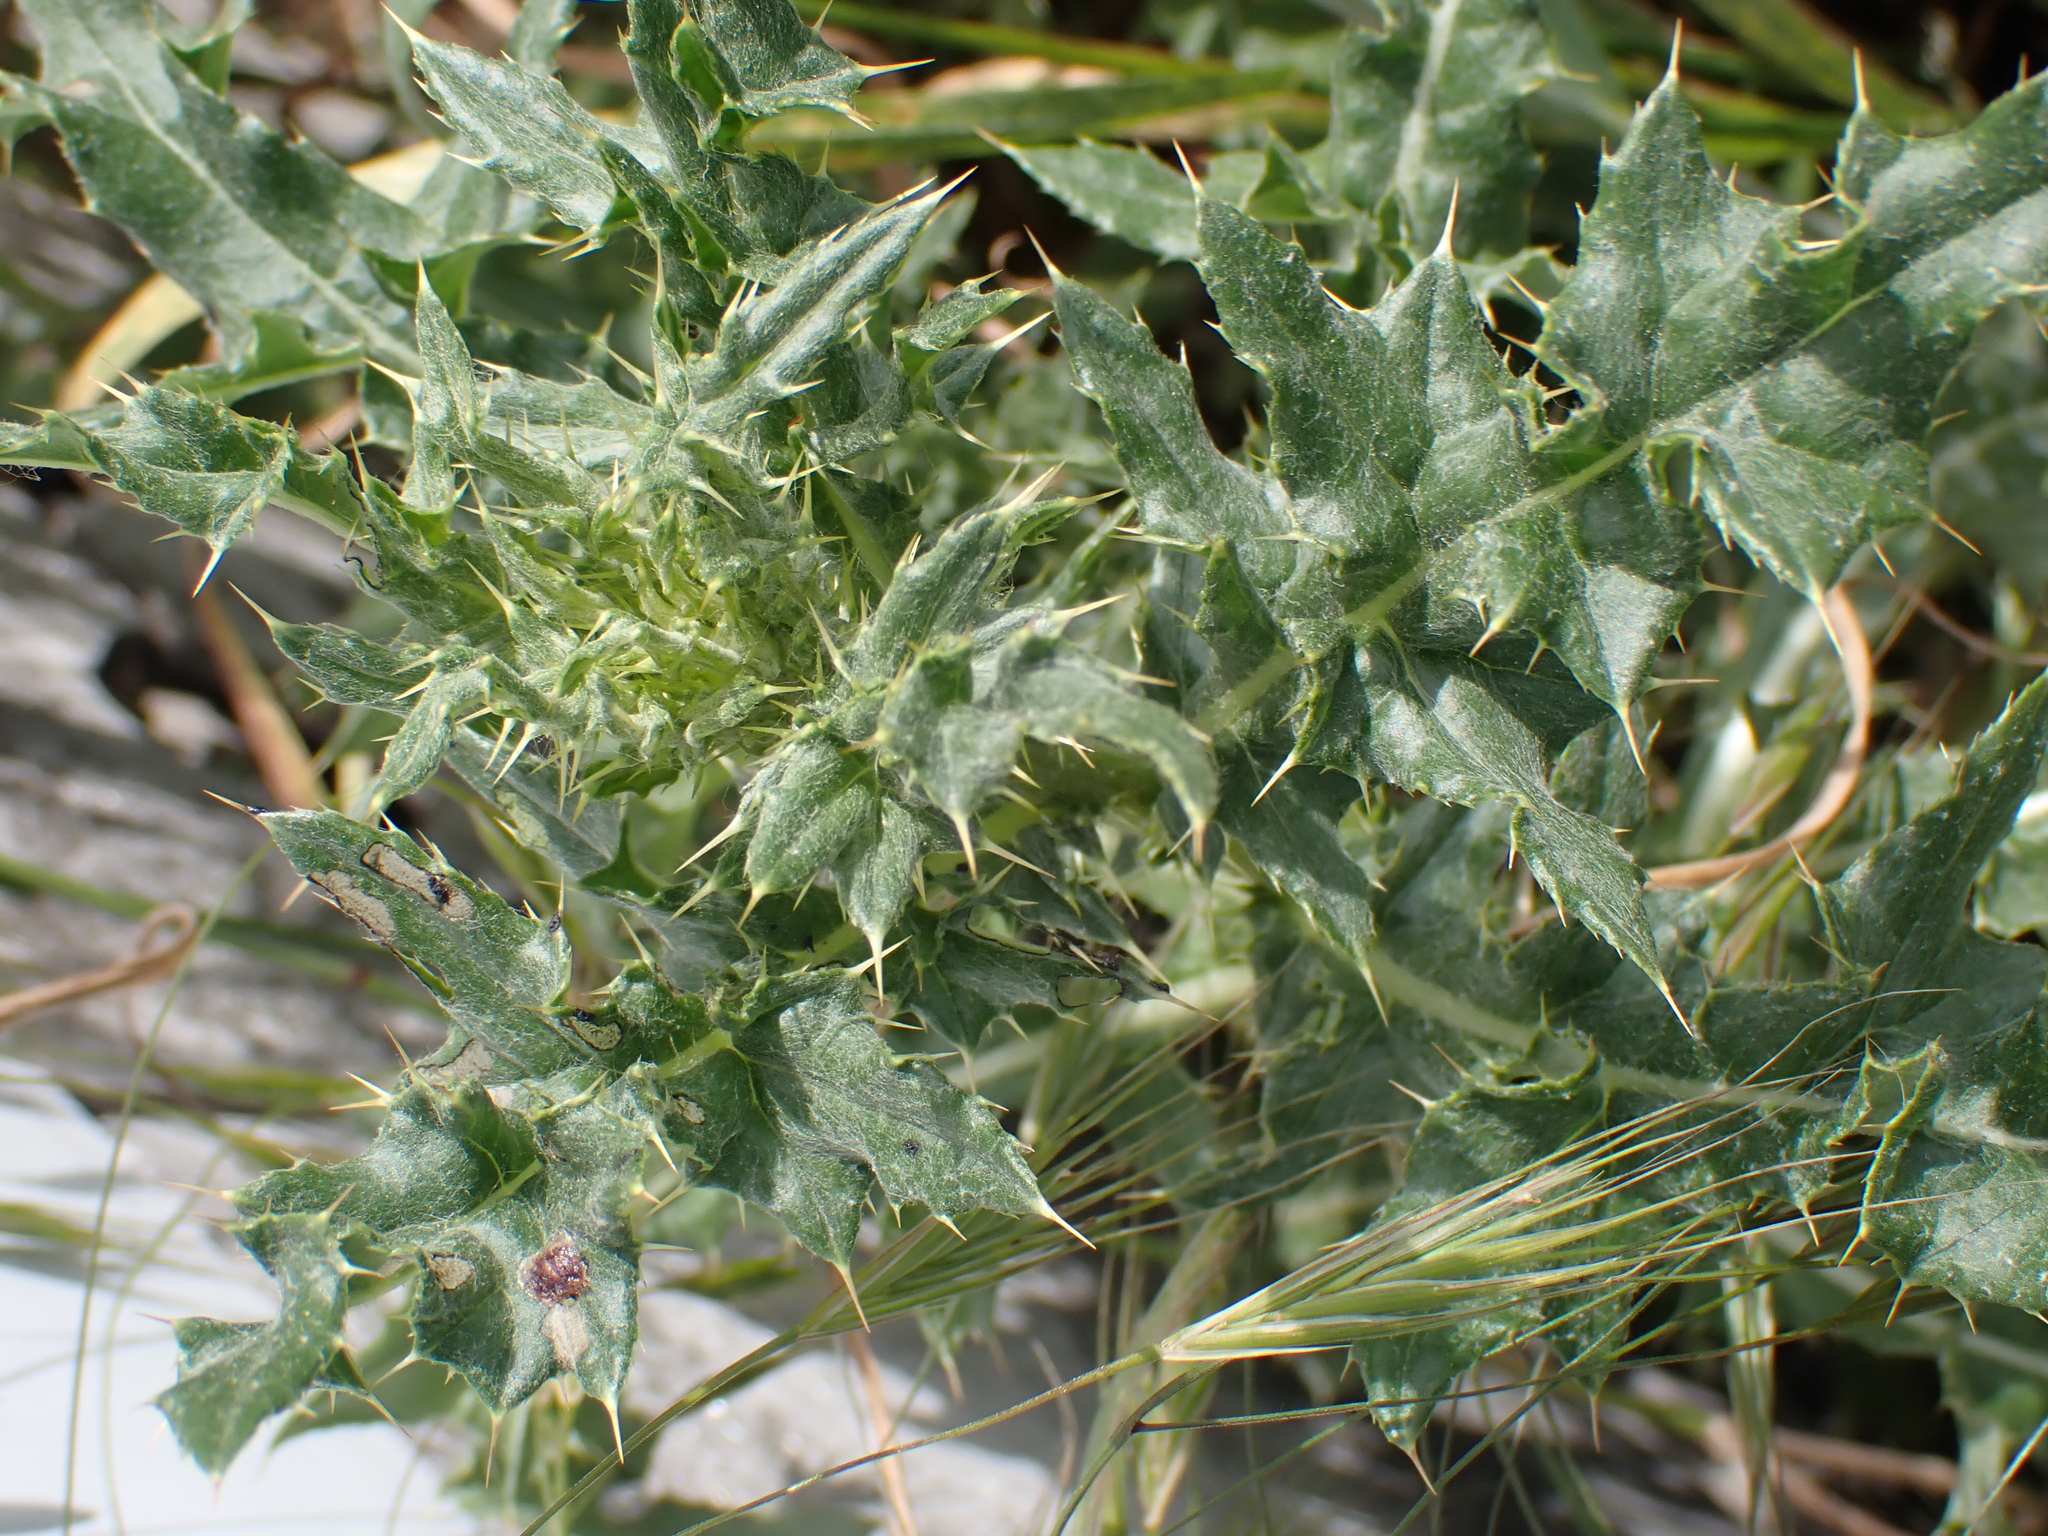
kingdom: Plantae
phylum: Tracheophyta
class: Magnoliopsida
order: Asterales
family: Asteraceae
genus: Cirsium
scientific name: Cirsium arvense
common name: Creeping thistle
